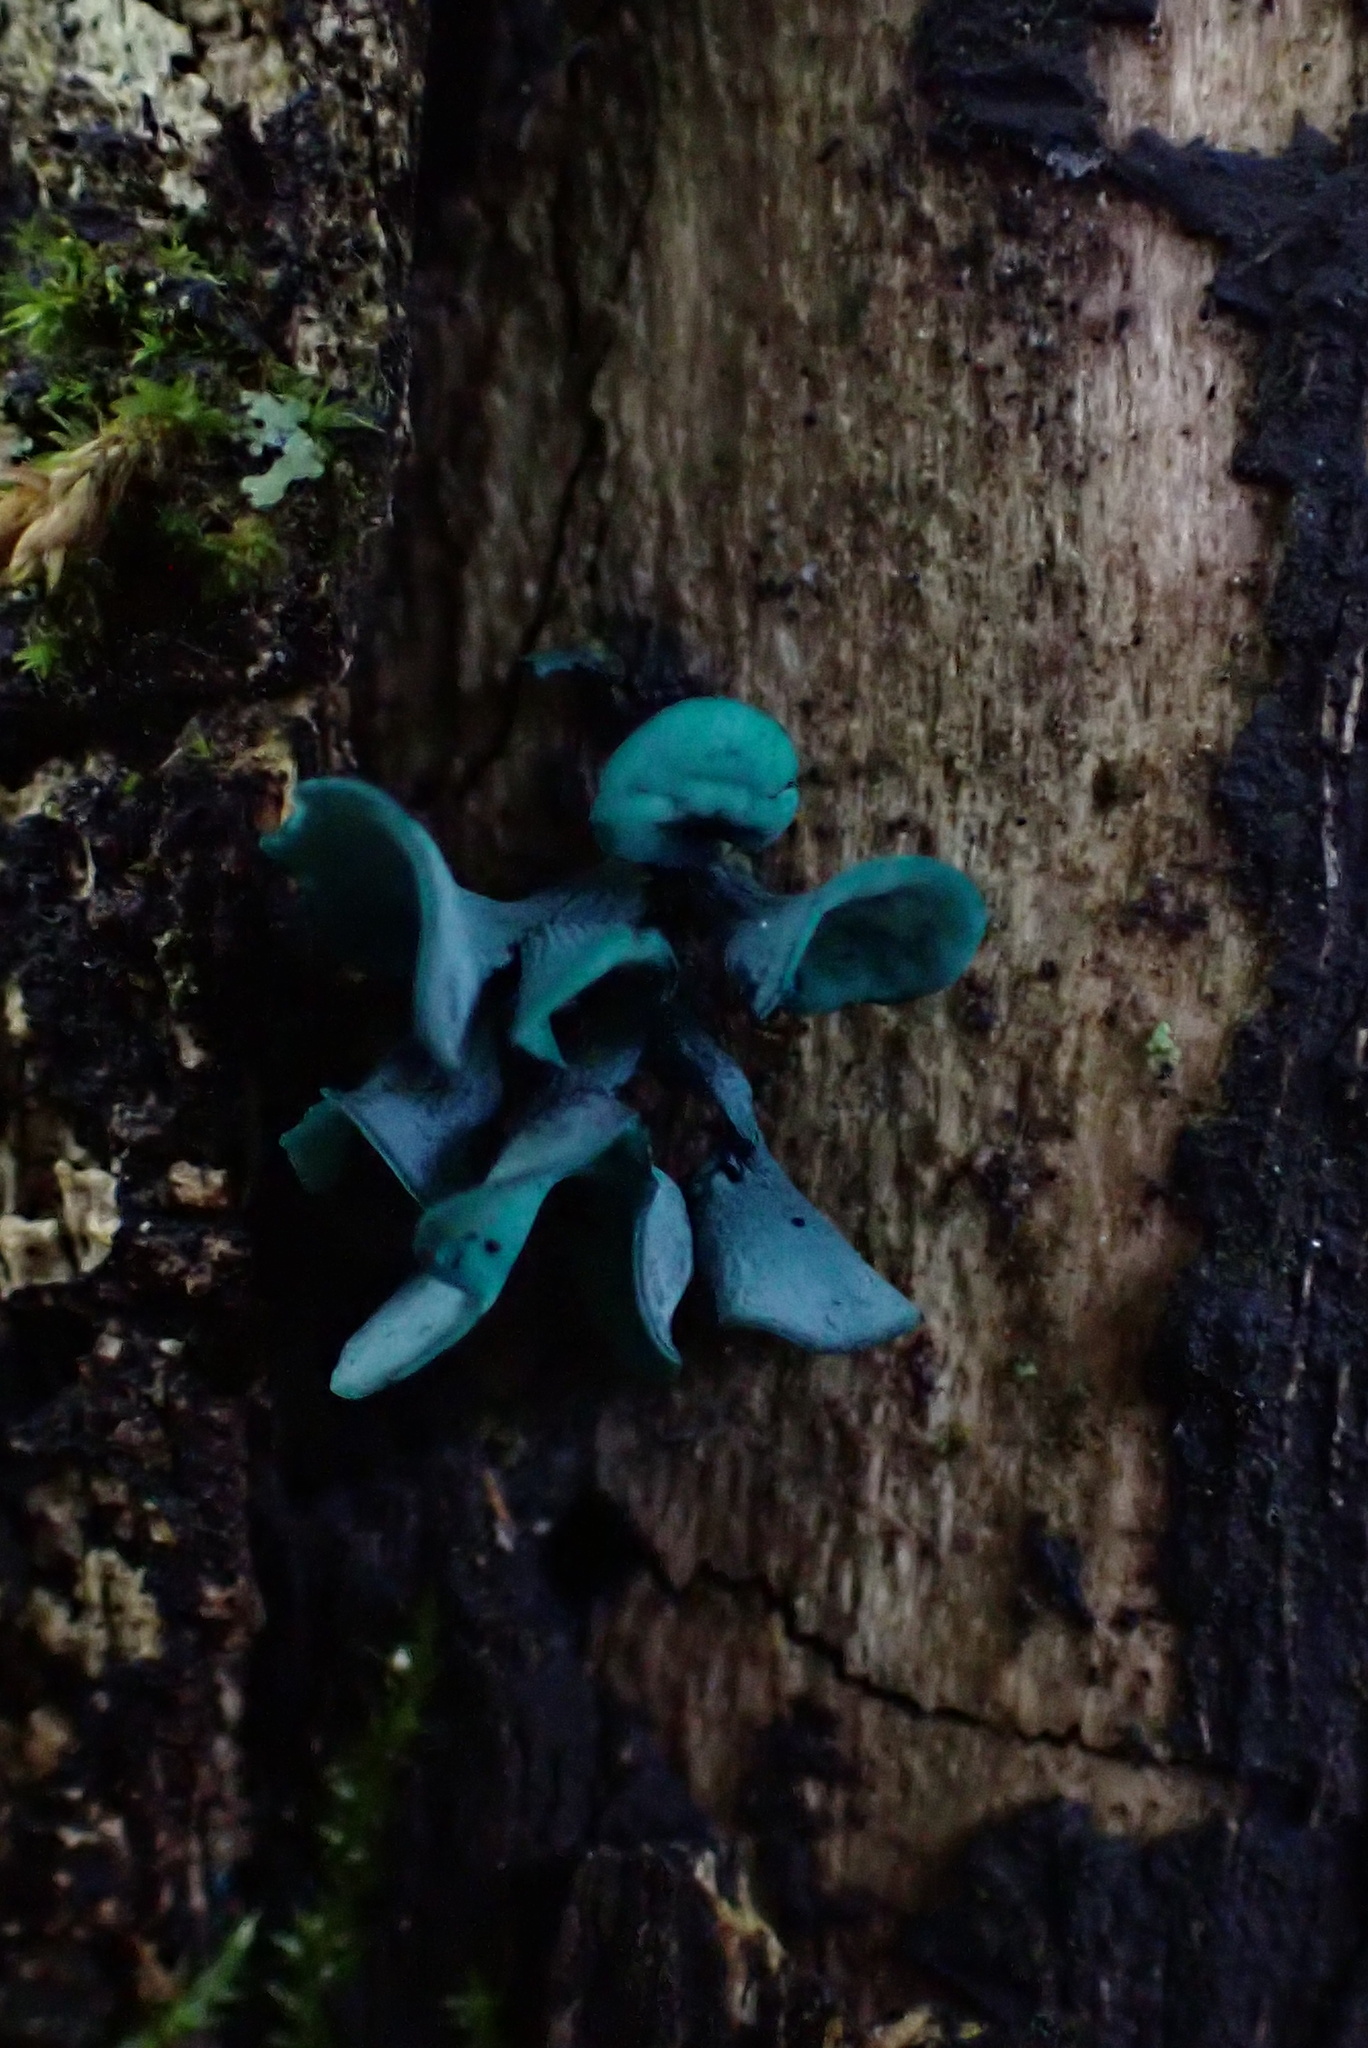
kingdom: Fungi
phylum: Ascomycota
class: Leotiomycetes
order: Helotiales
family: Chlorociboriaceae
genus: Chlorociboria
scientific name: Chlorociboria aeruginascens
